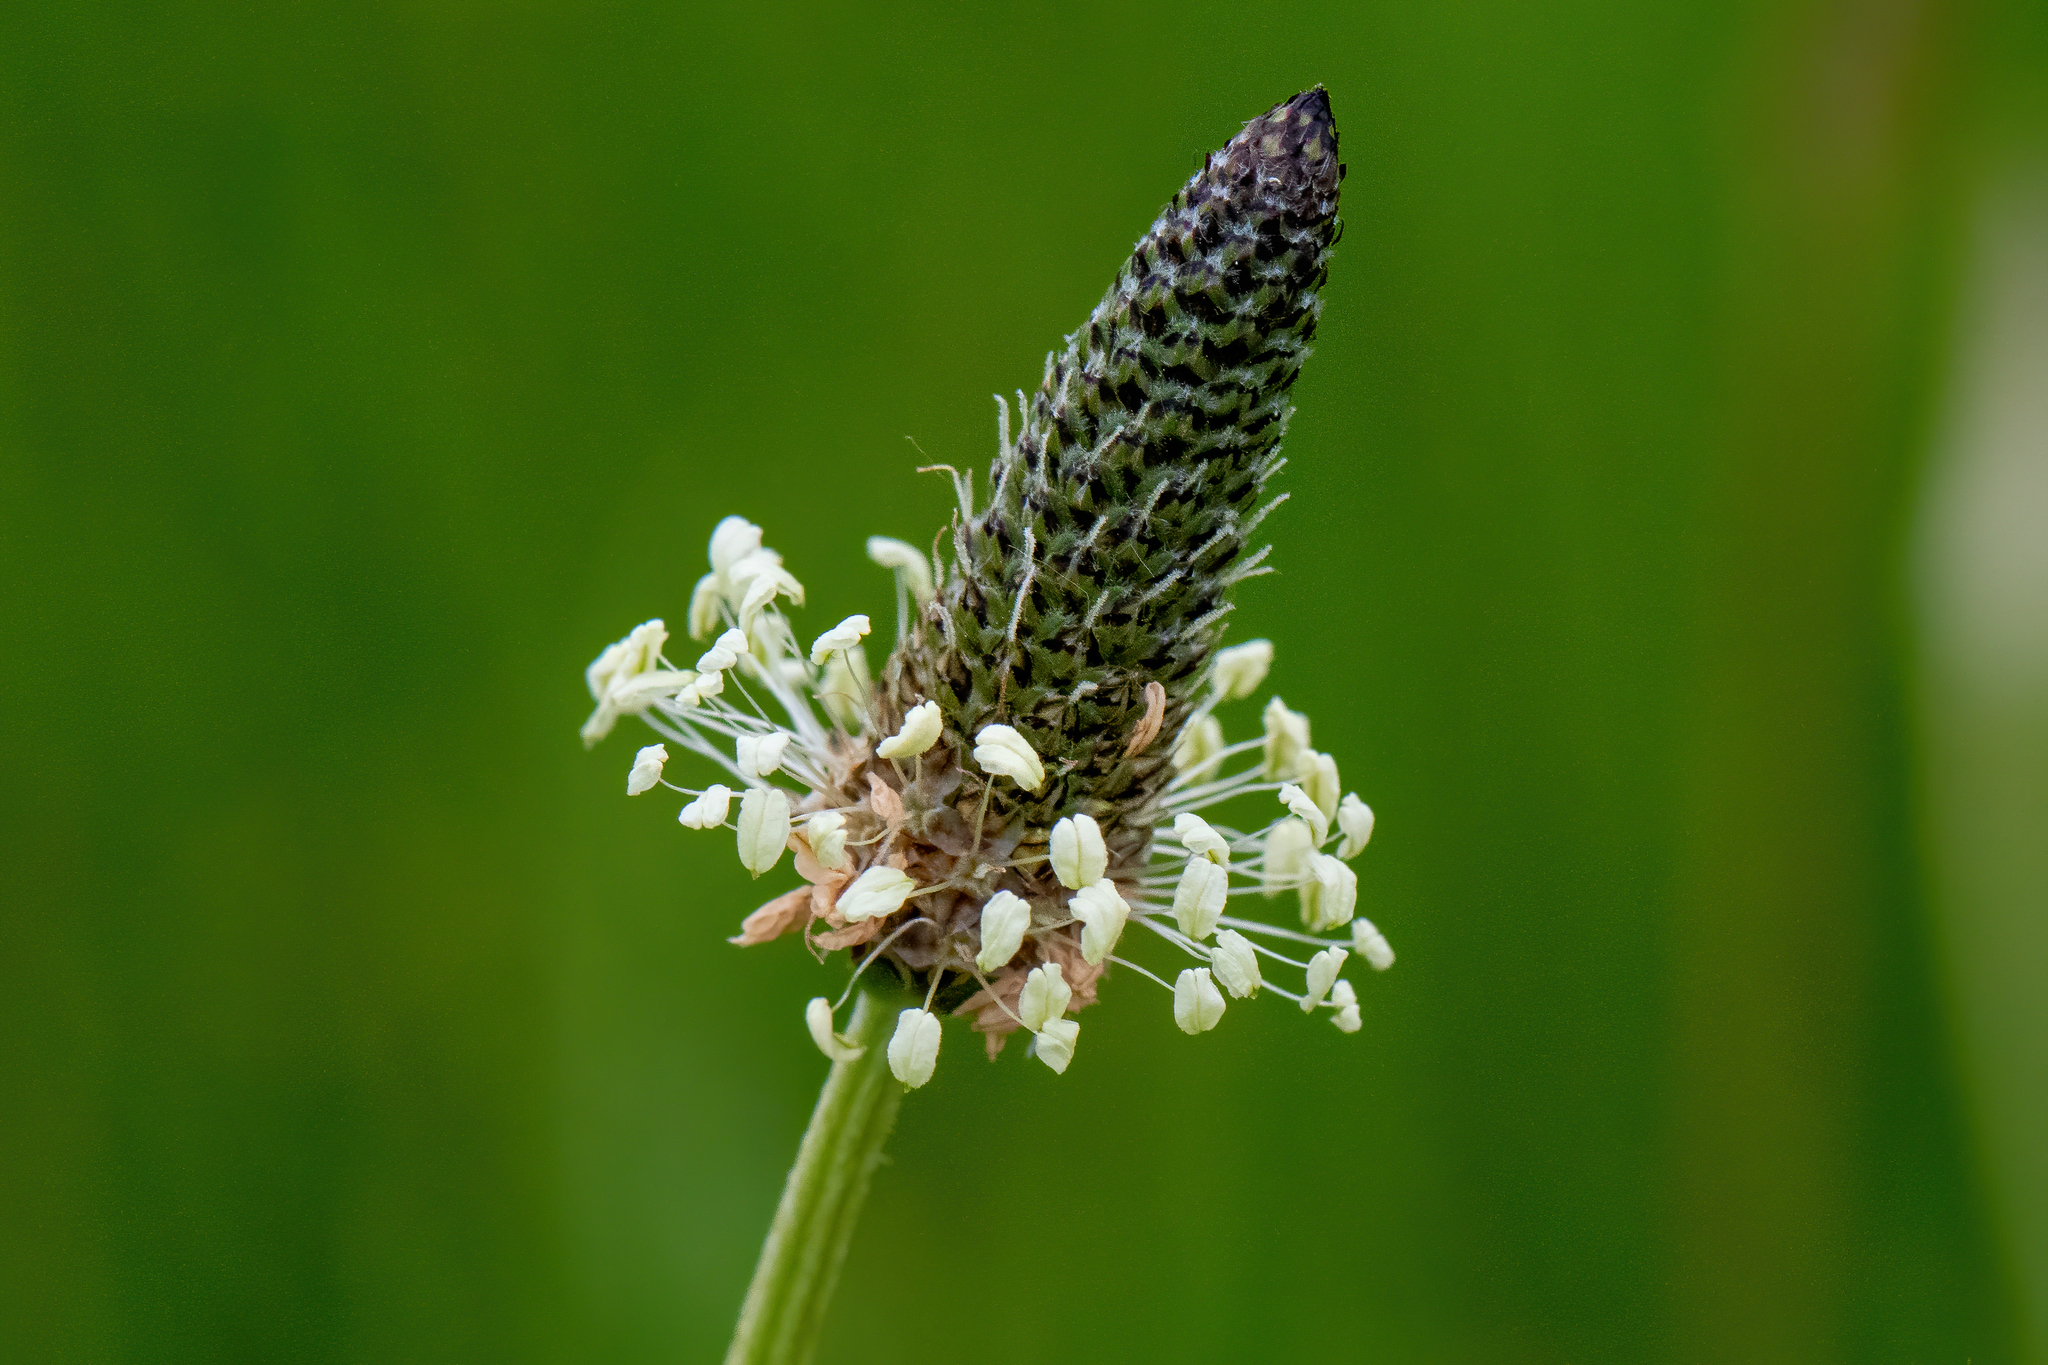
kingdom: Plantae
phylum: Tracheophyta
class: Magnoliopsida
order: Lamiales
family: Plantaginaceae
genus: Plantago
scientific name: Plantago lanceolata
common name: Ribwort plantain
